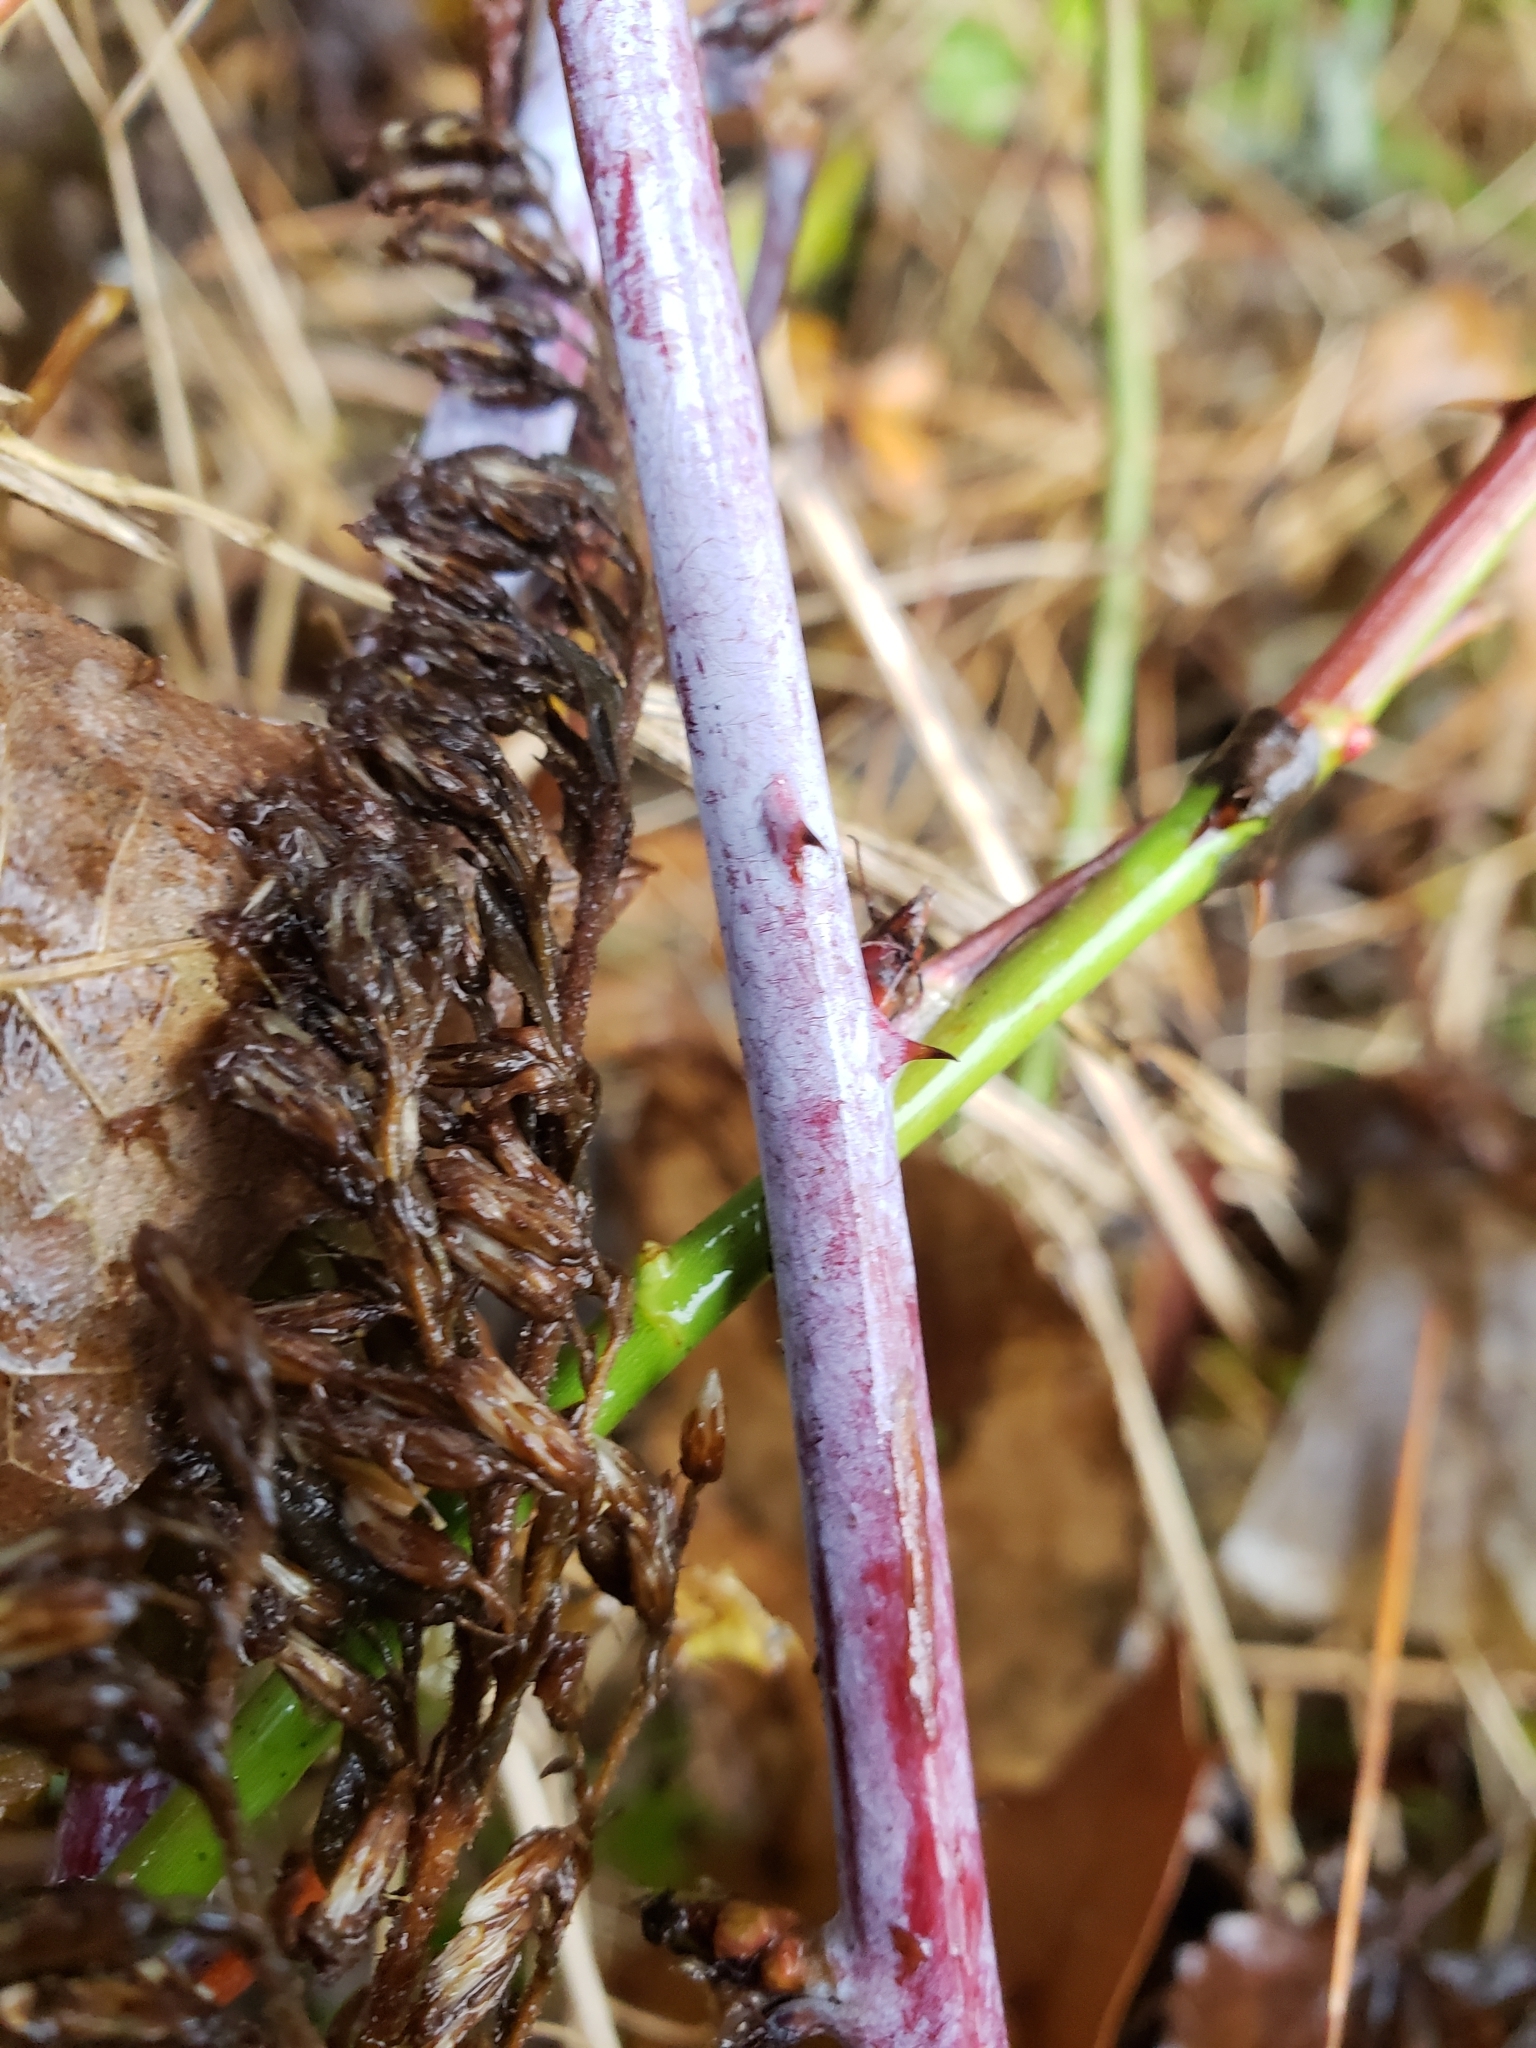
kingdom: Plantae
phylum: Tracheophyta
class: Magnoliopsida
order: Rosales
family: Rosaceae
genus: Rubus
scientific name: Rubus occidentalis
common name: Black raspberry
